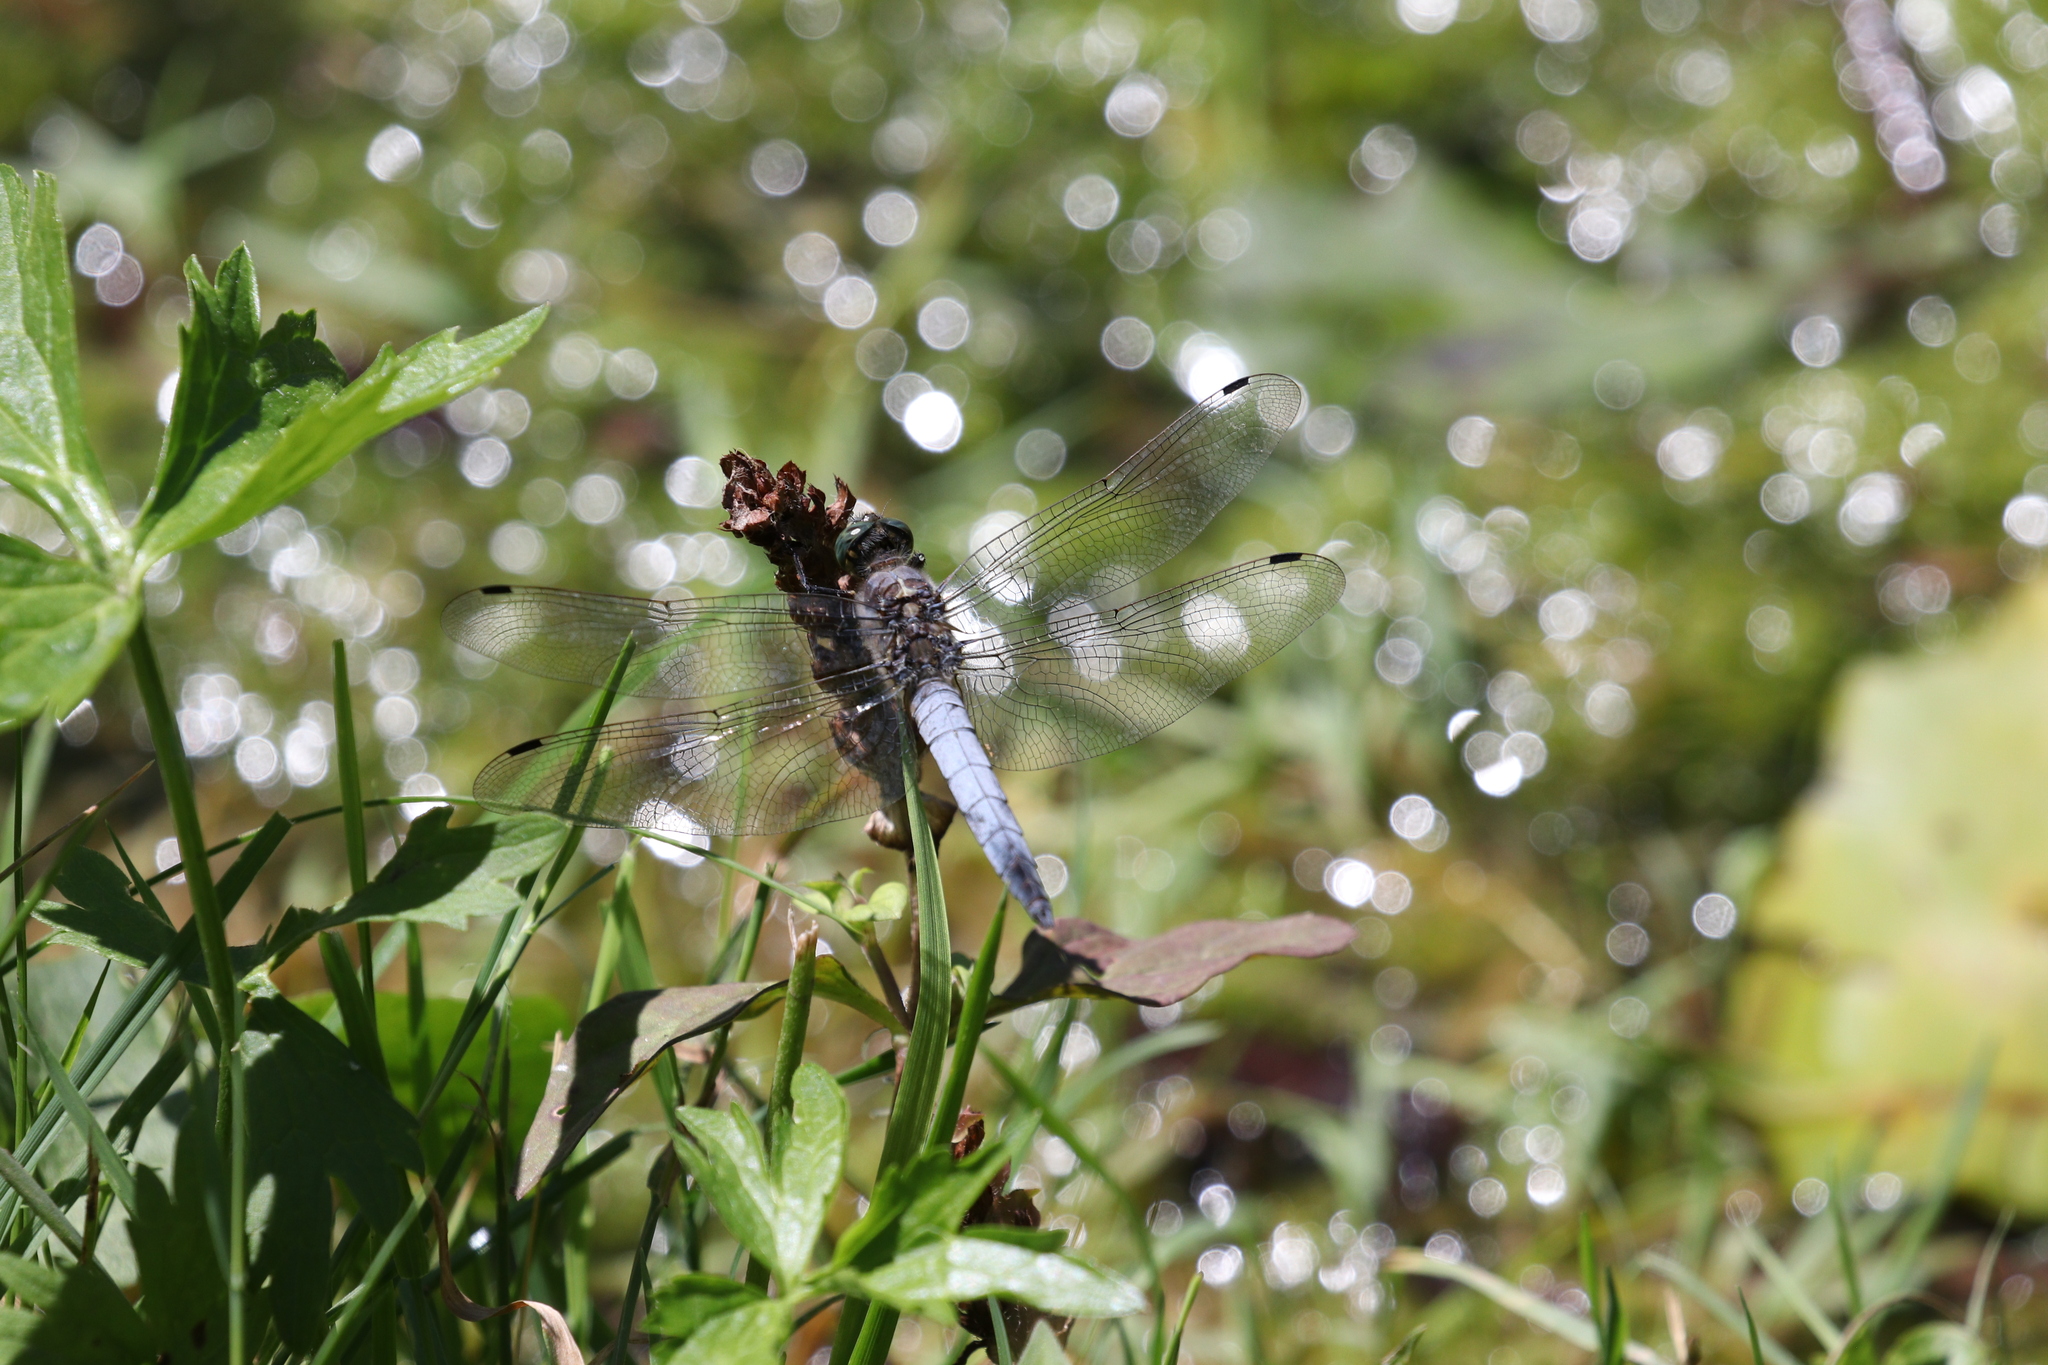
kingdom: Animalia
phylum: Arthropoda
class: Insecta
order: Odonata
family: Libellulidae
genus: Orthetrum
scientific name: Orthetrum cancellatum
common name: Black-tailed skimmer
